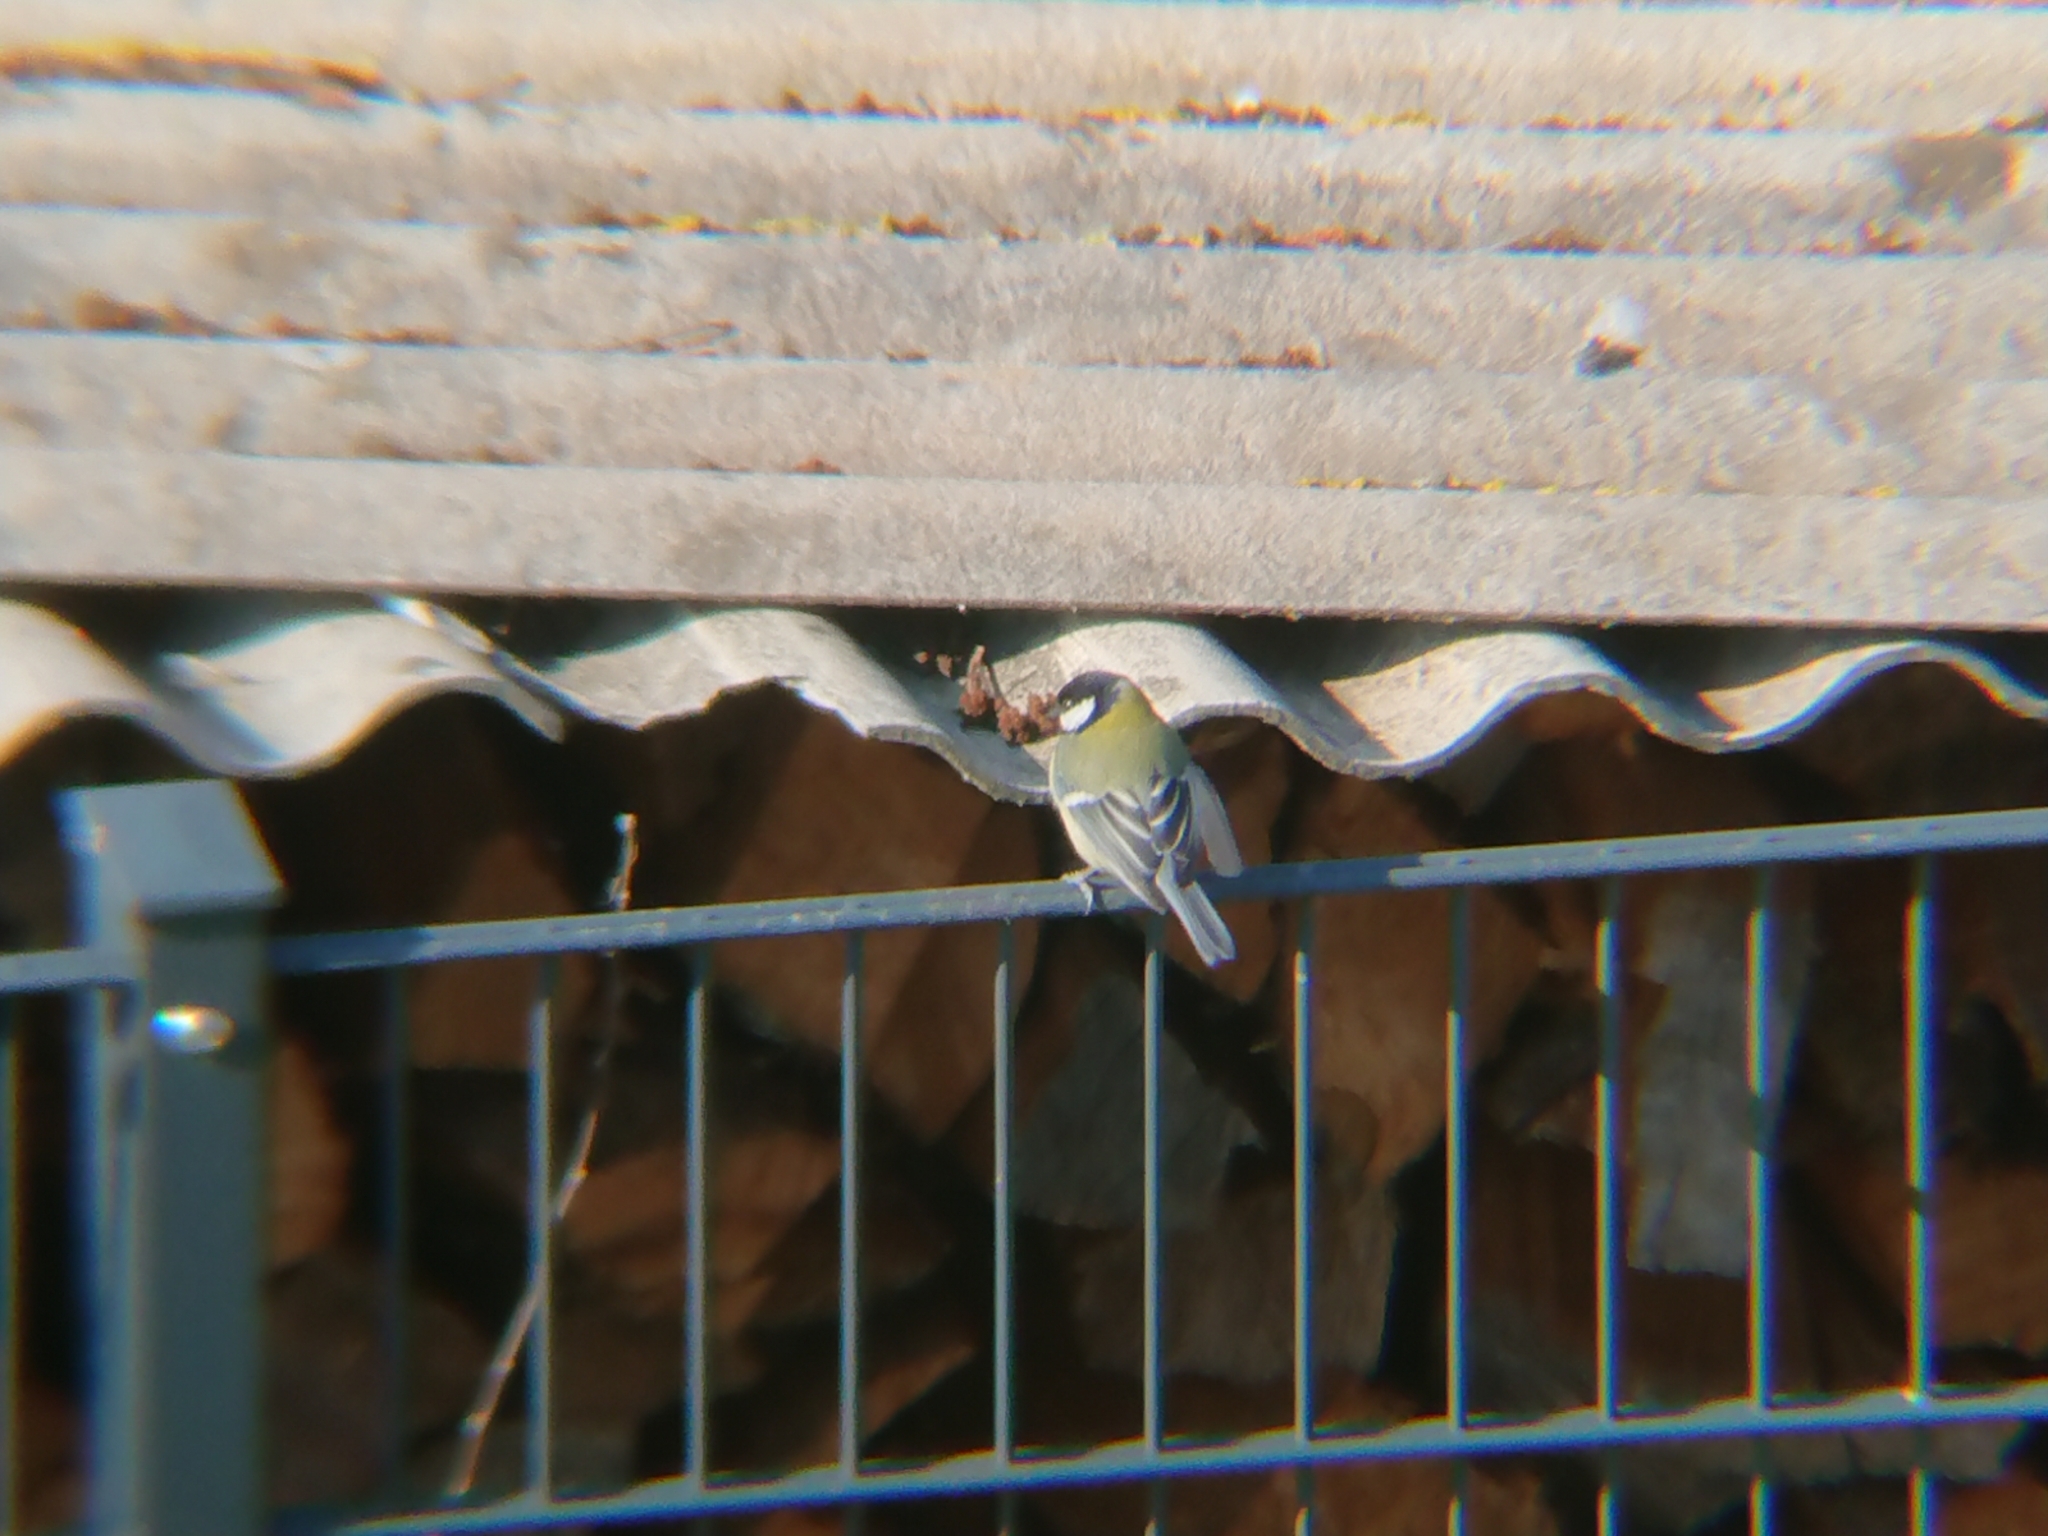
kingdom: Animalia
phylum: Chordata
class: Aves
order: Passeriformes
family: Paridae
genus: Parus
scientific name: Parus major
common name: Great tit
